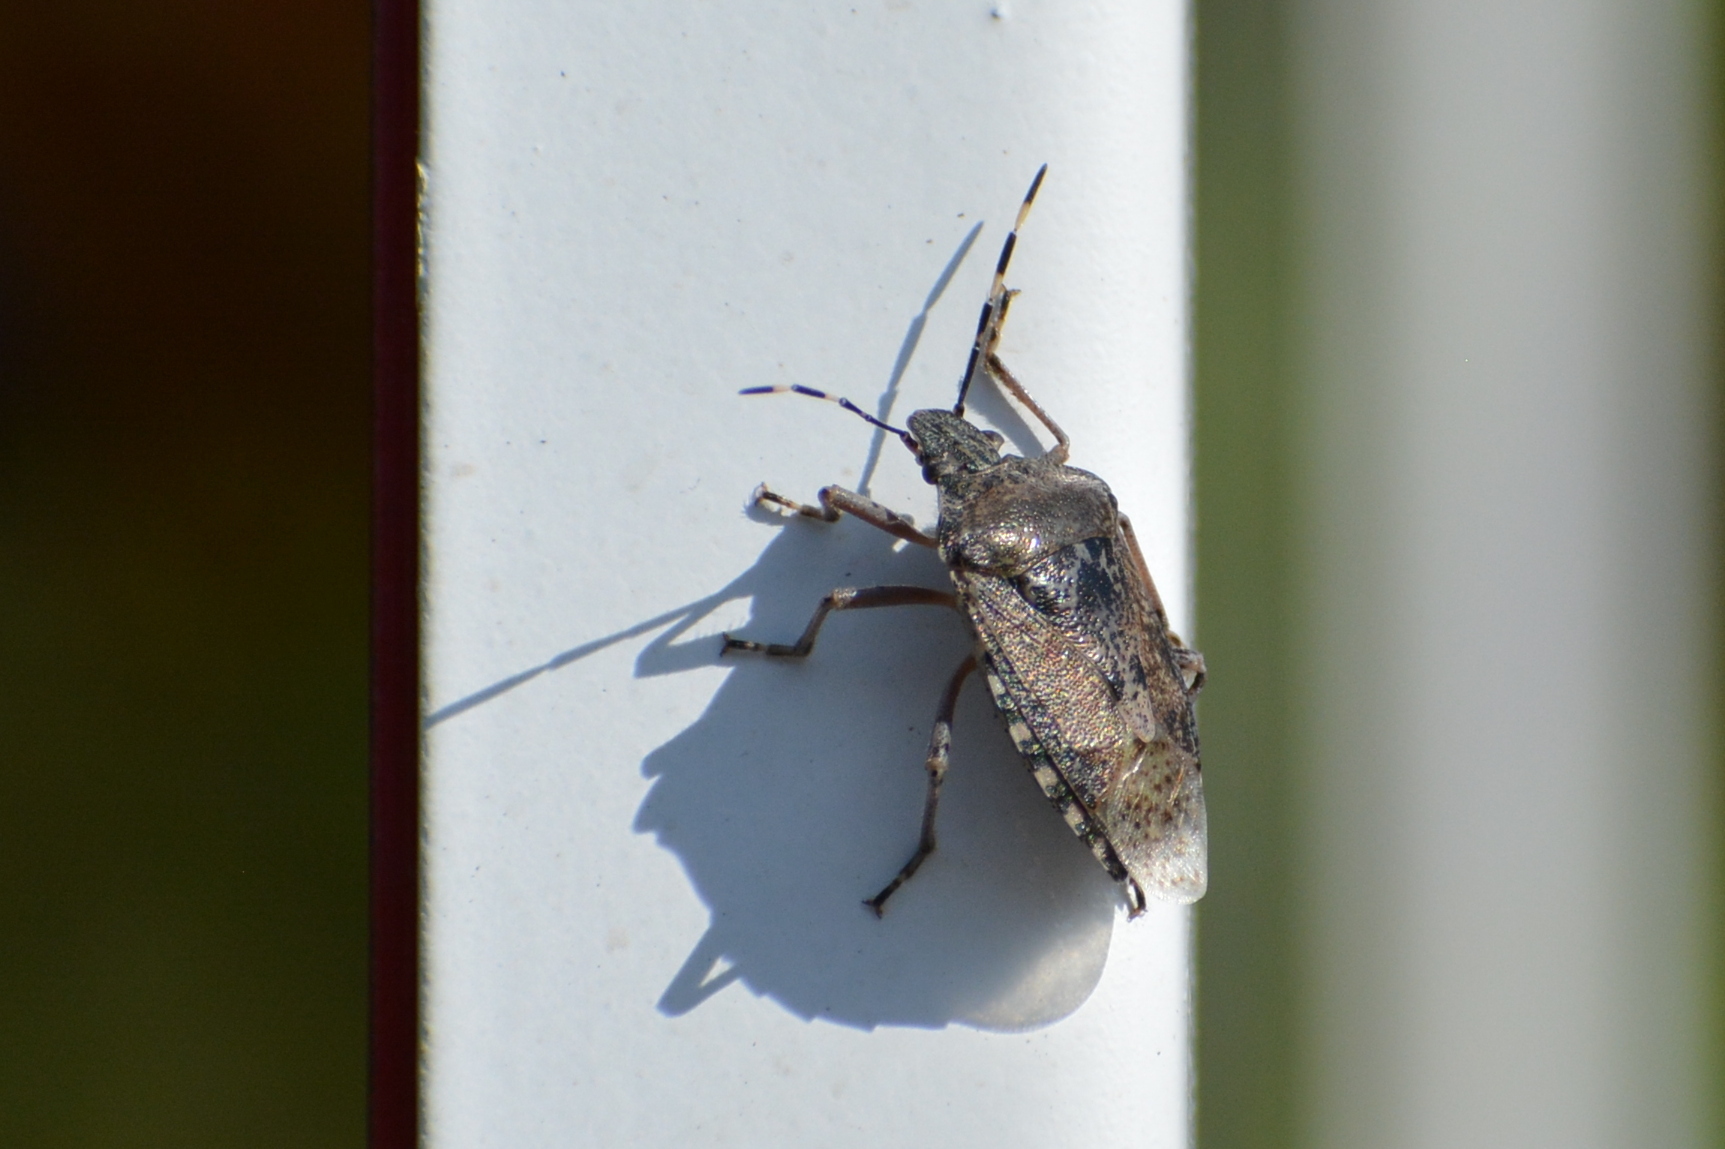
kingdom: Animalia
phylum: Arthropoda
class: Insecta
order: Hemiptera
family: Pentatomidae
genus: Rhaphigaster
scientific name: Rhaphigaster nebulosa
